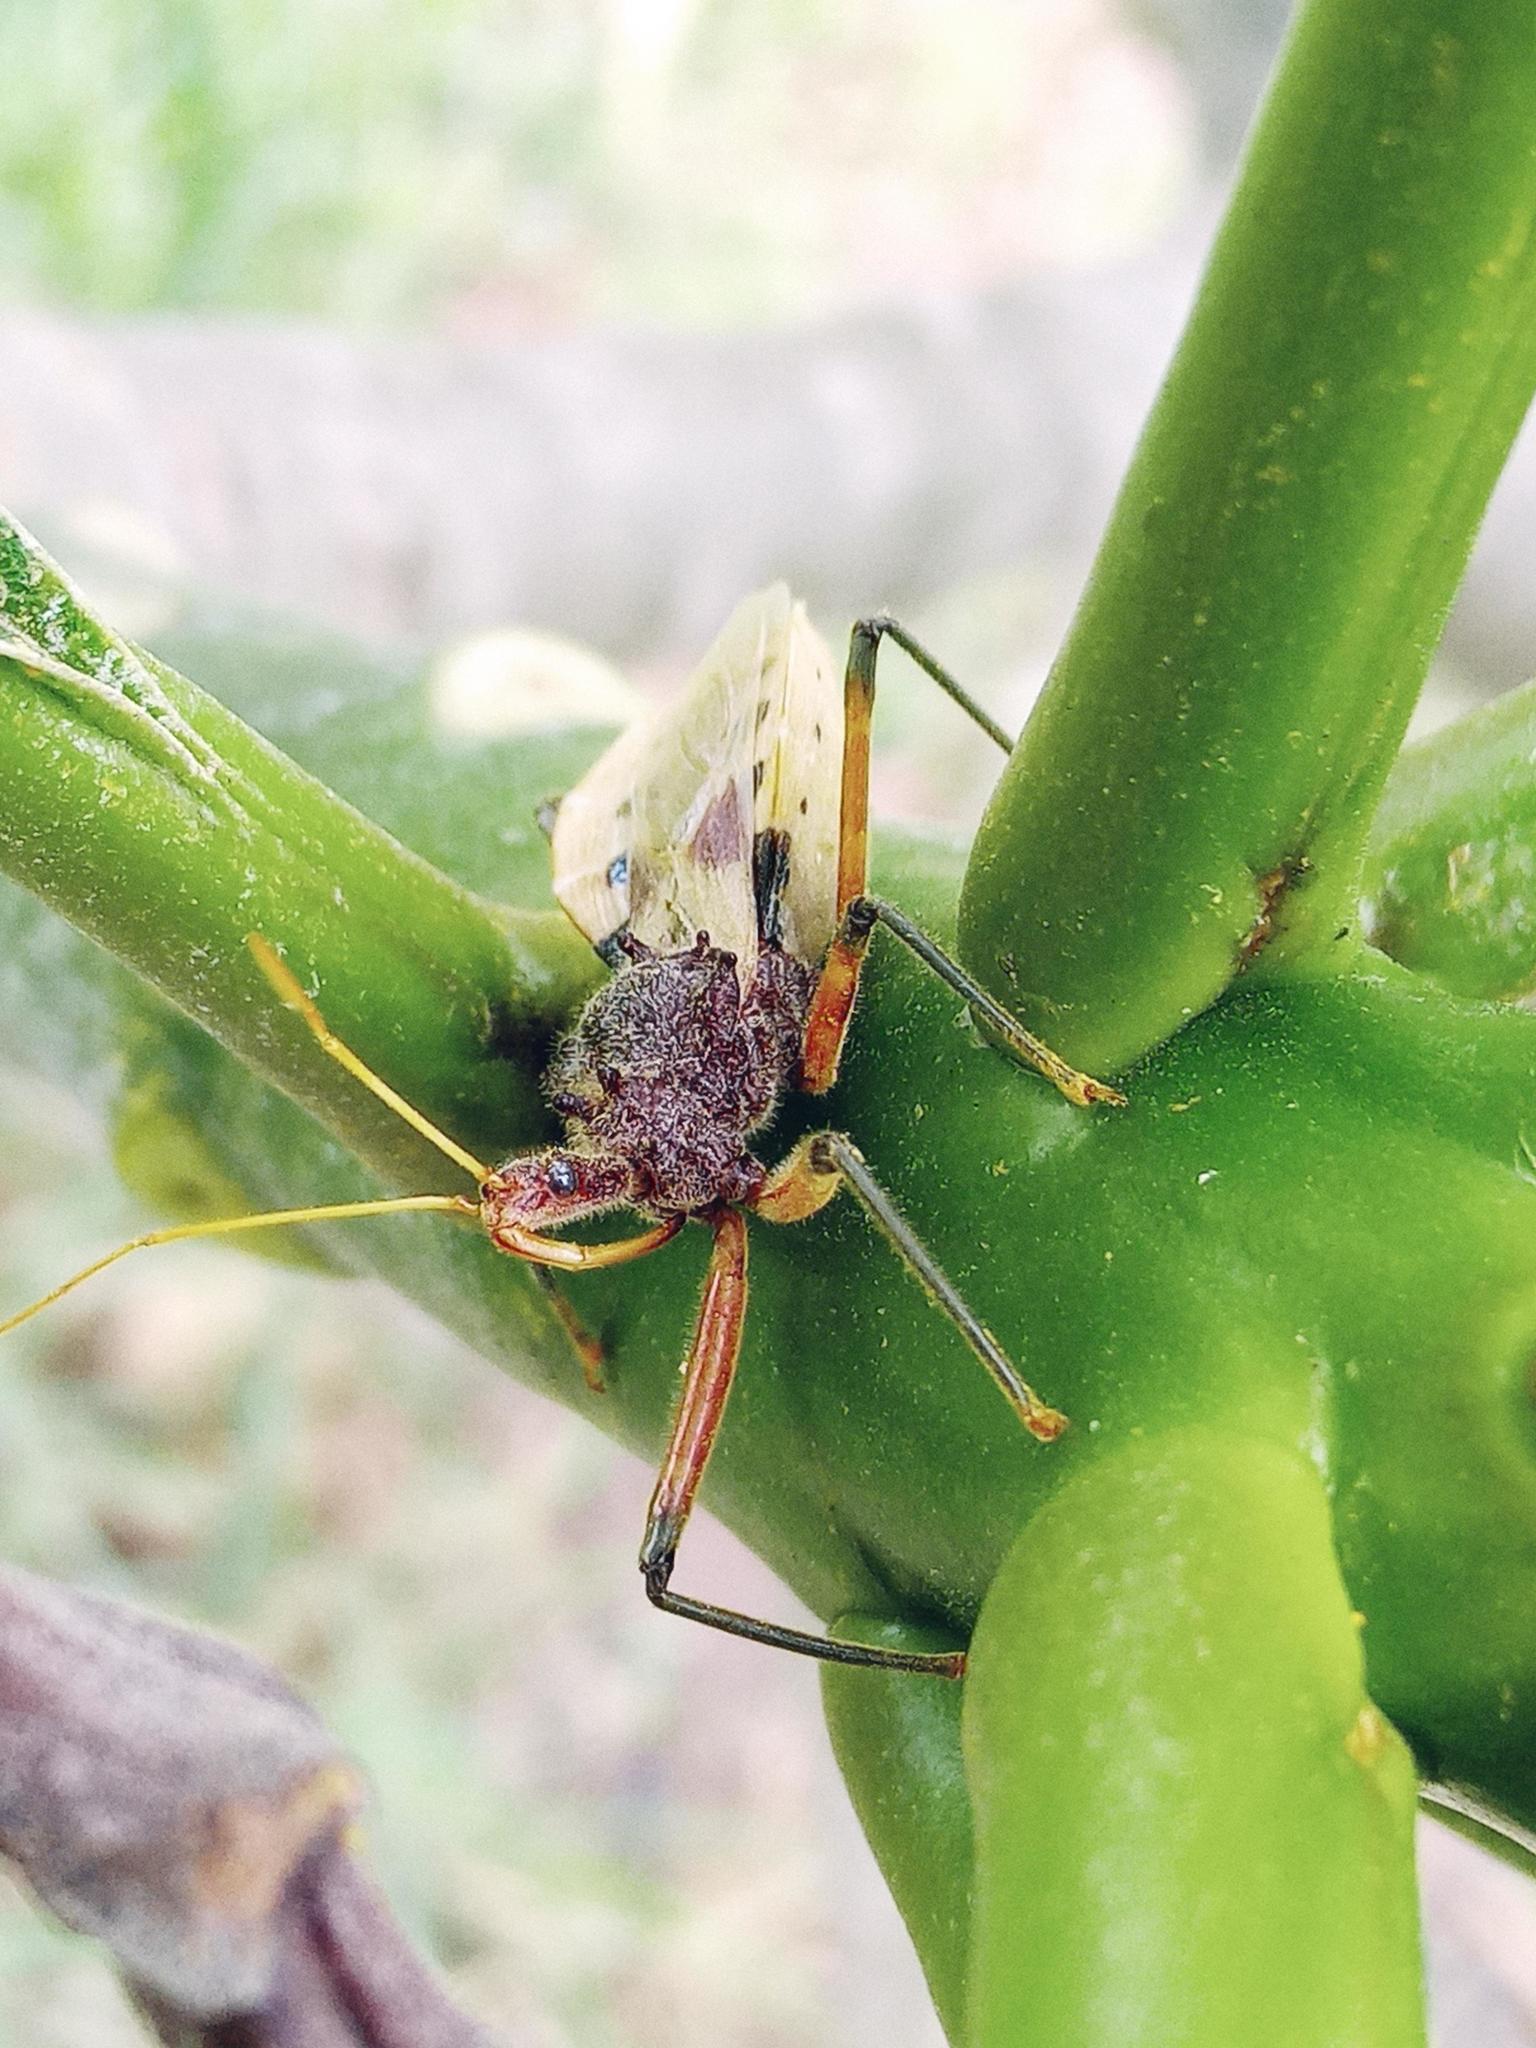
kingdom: Animalia
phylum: Arthropoda
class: Insecta
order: Hemiptera
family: Reduviidae
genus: Pristhesancus
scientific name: Pristhesancus plagipennis
